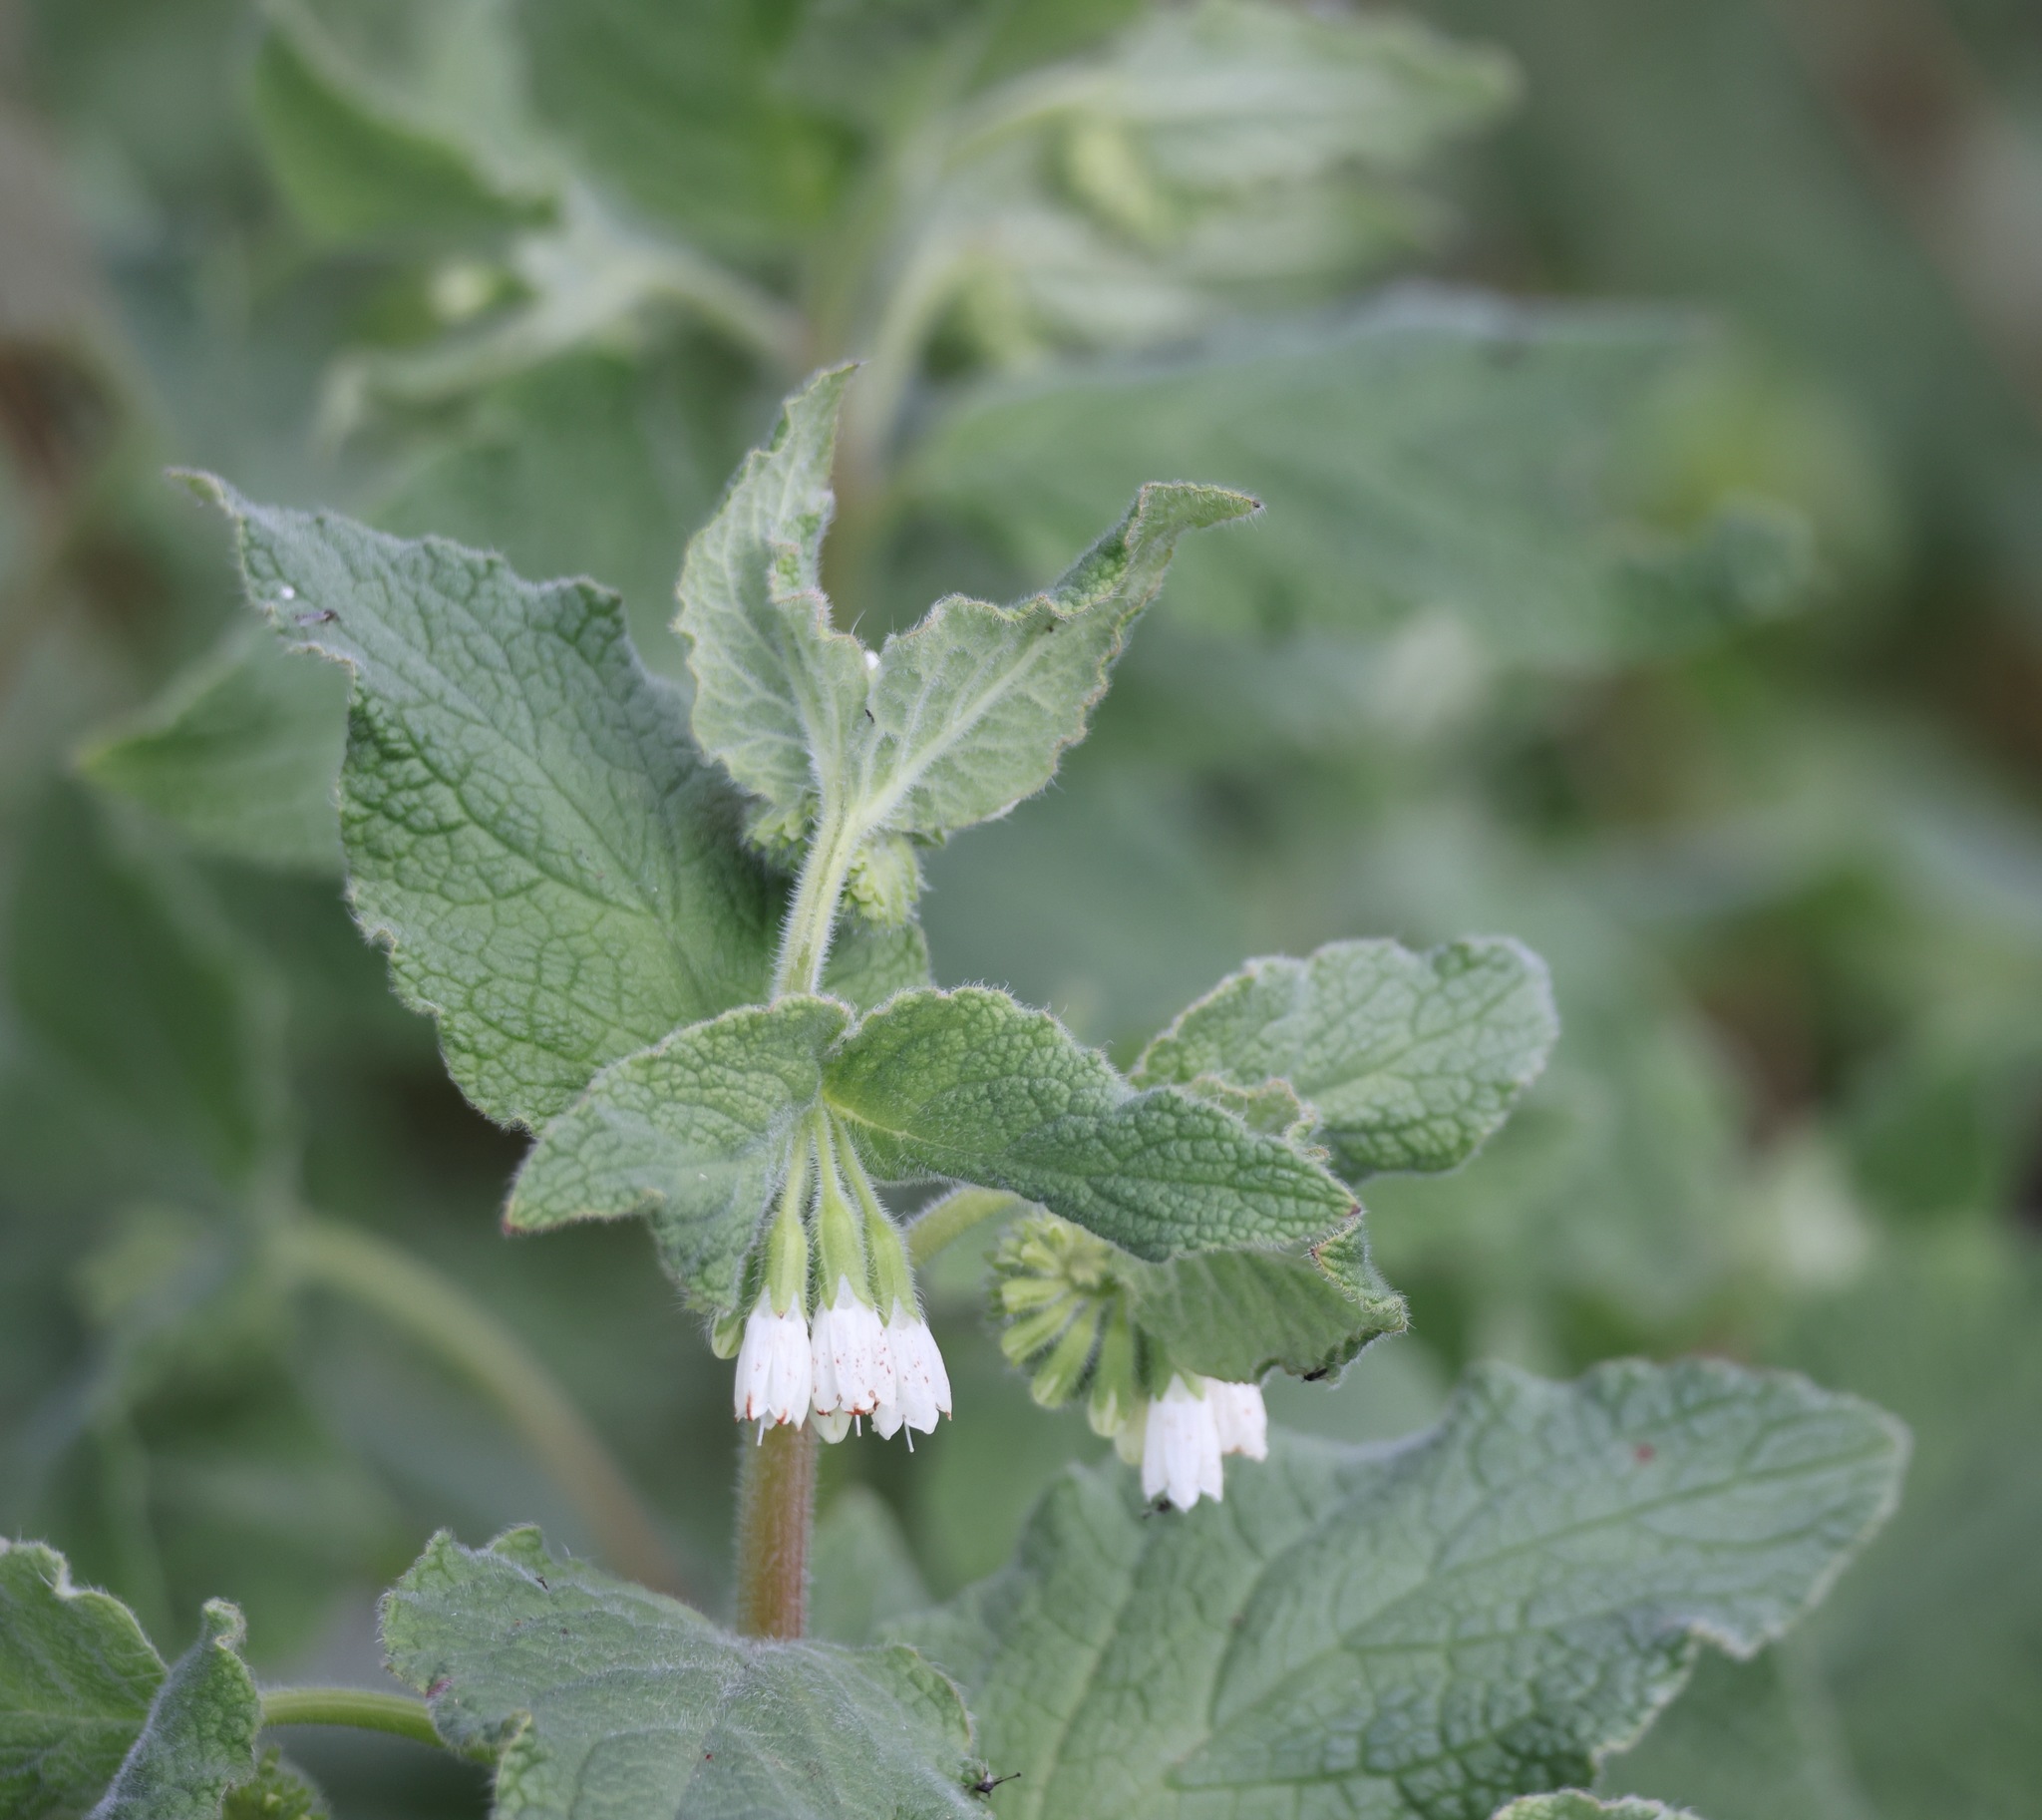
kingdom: Plantae
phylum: Tracheophyta
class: Magnoliopsida
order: Boraginales
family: Boraginaceae
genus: Symphytum
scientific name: Symphytum orientale
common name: White comfrey
